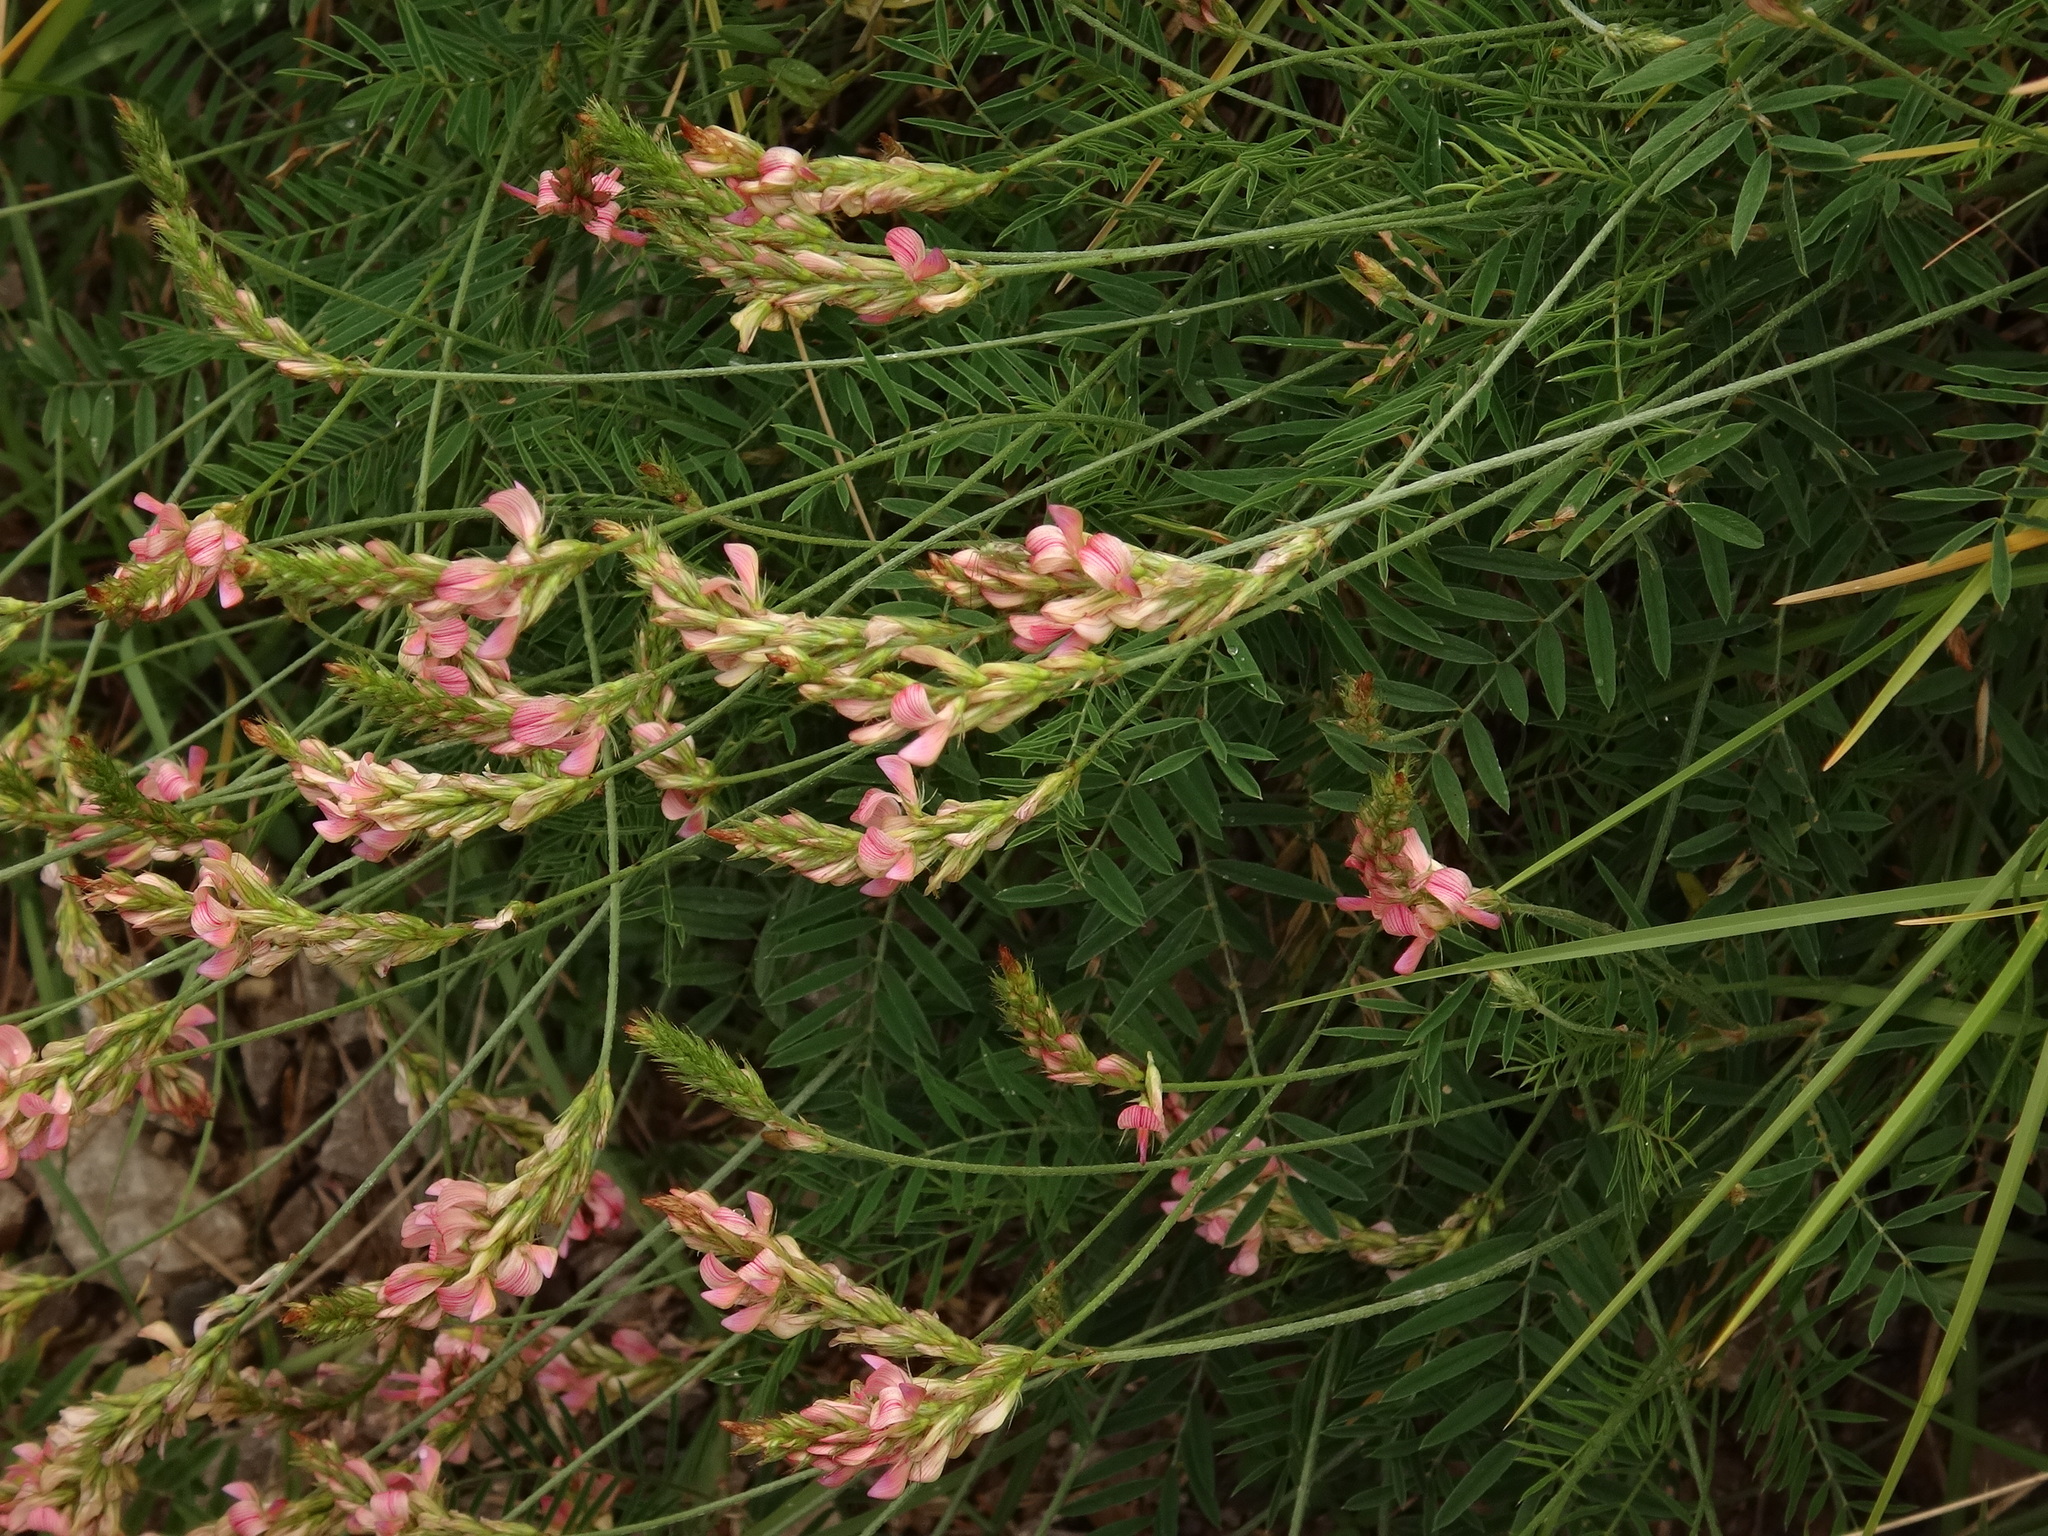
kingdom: Plantae
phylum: Tracheophyta
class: Magnoliopsida
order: Fabales
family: Fabaceae
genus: Onobrychis
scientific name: Onobrychis arenaria
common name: Sand esparcet
